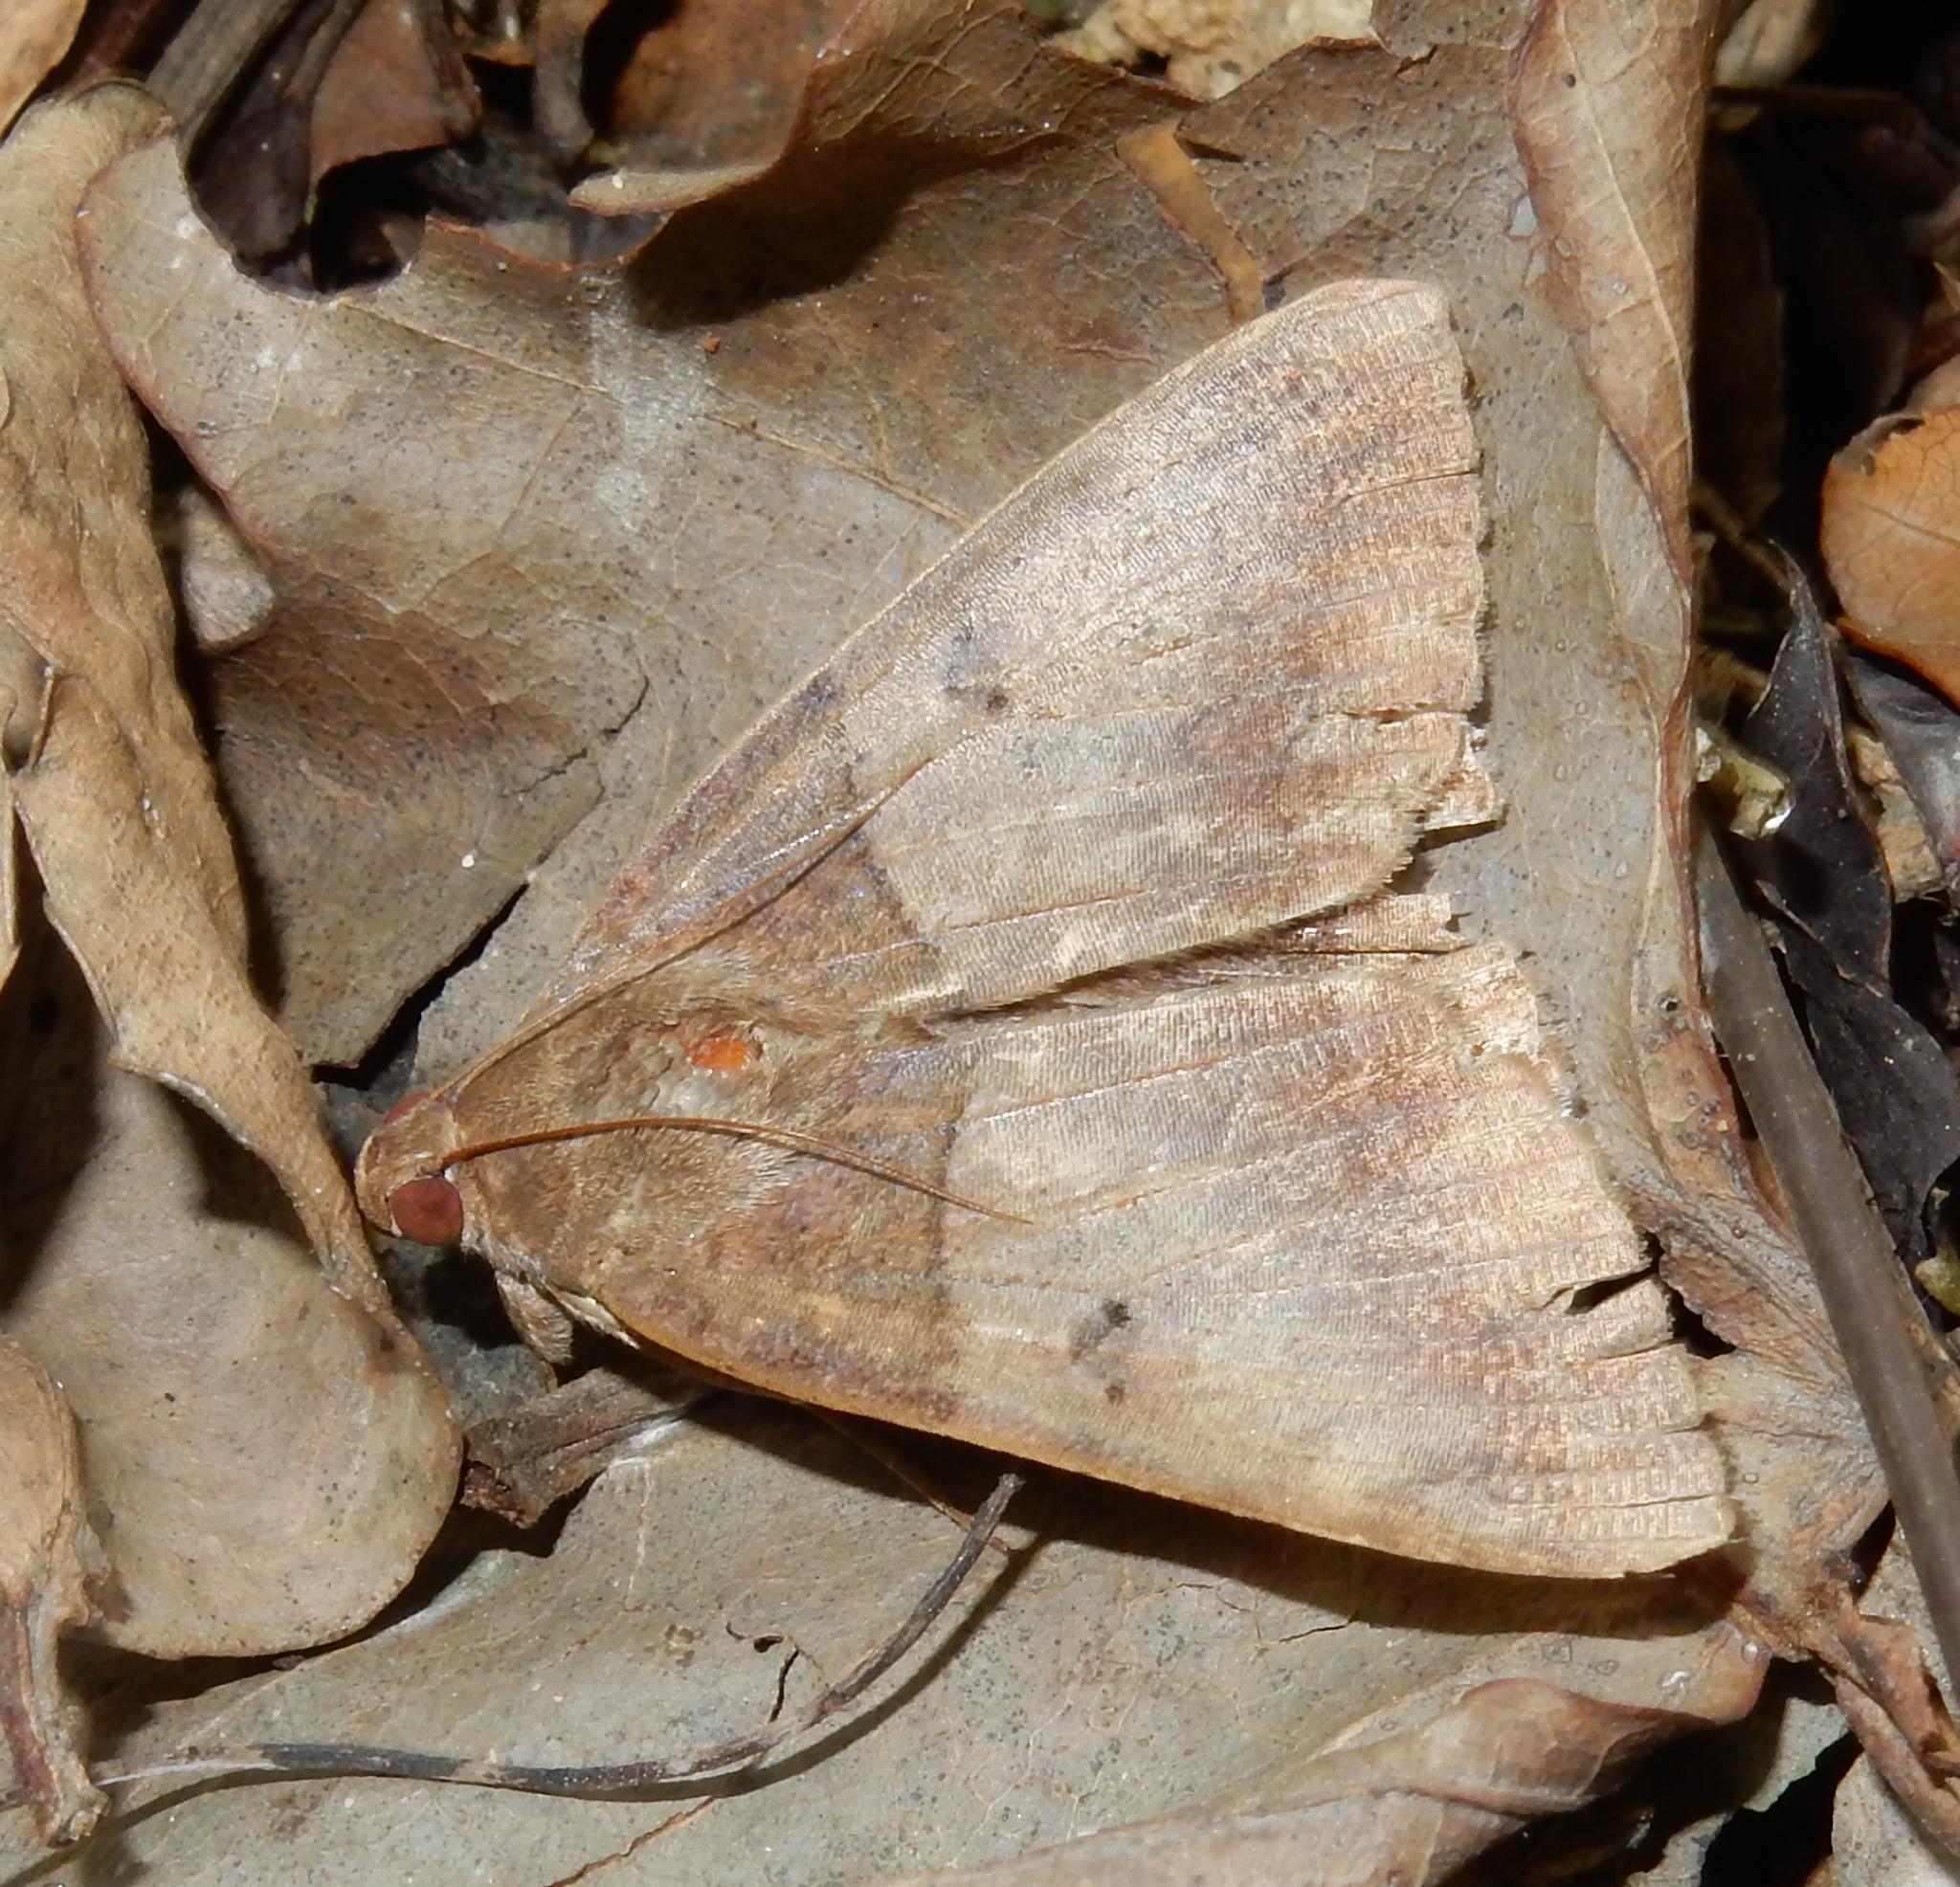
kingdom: Animalia
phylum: Arthropoda
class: Insecta
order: Lepidoptera
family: Erebidae
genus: Achaea
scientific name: Achaea lienardi
